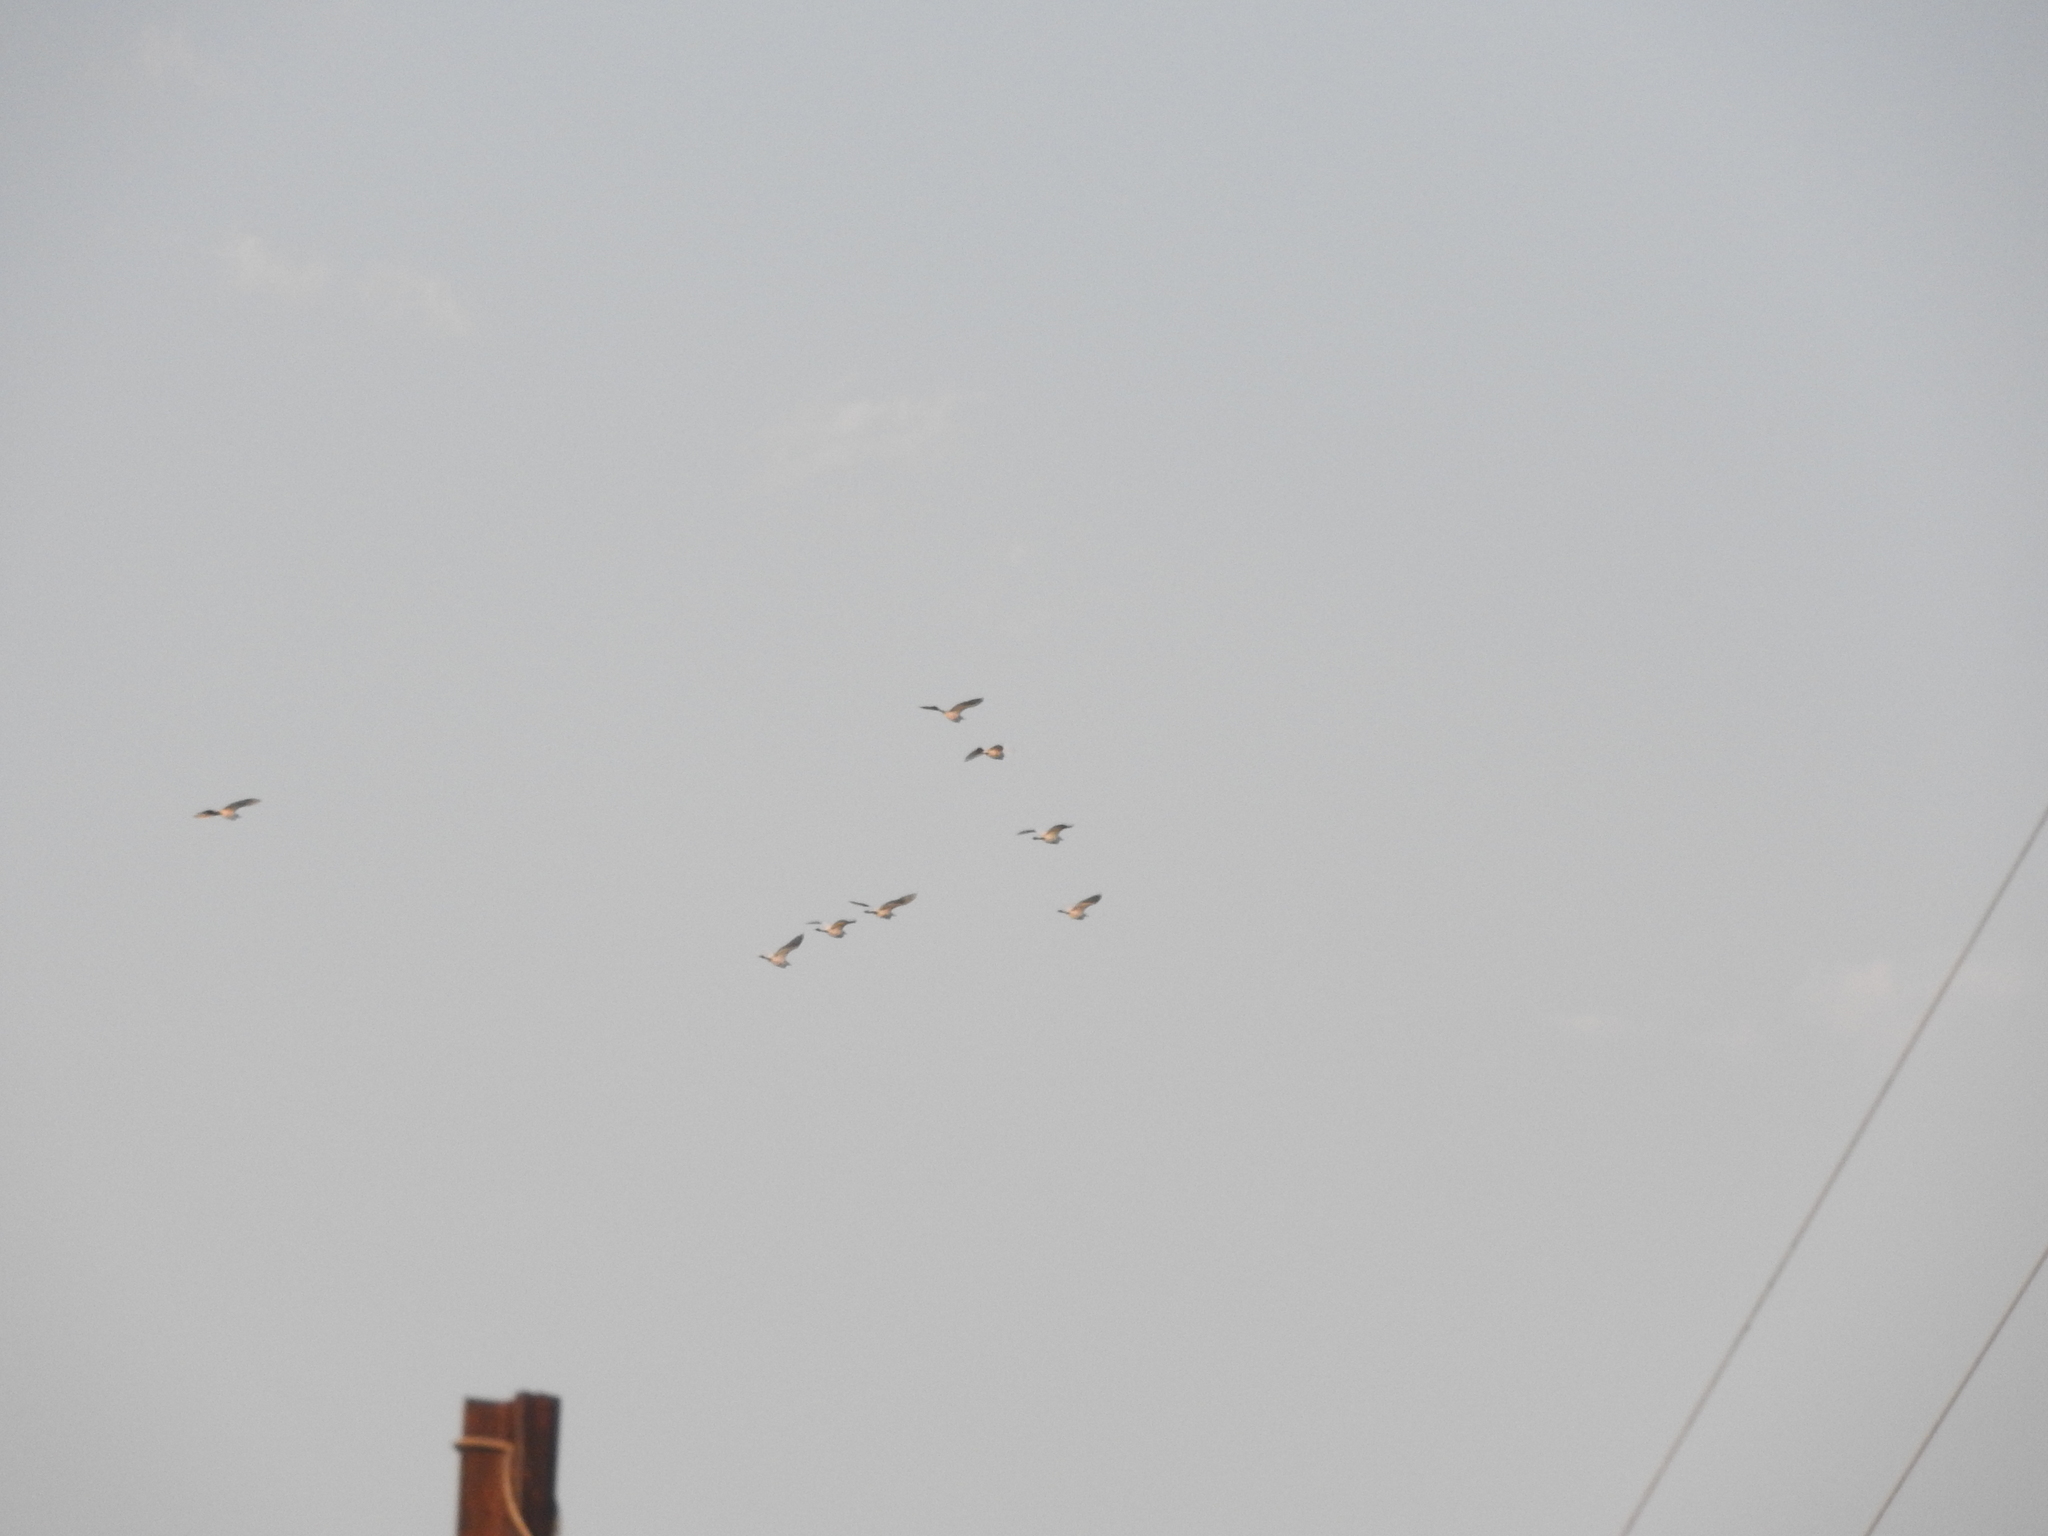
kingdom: Animalia
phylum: Chordata
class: Aves
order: Pelecaniformes
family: Ardeidae
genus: Bubulcus
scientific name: Bubulcus ibis
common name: Cattle egret
